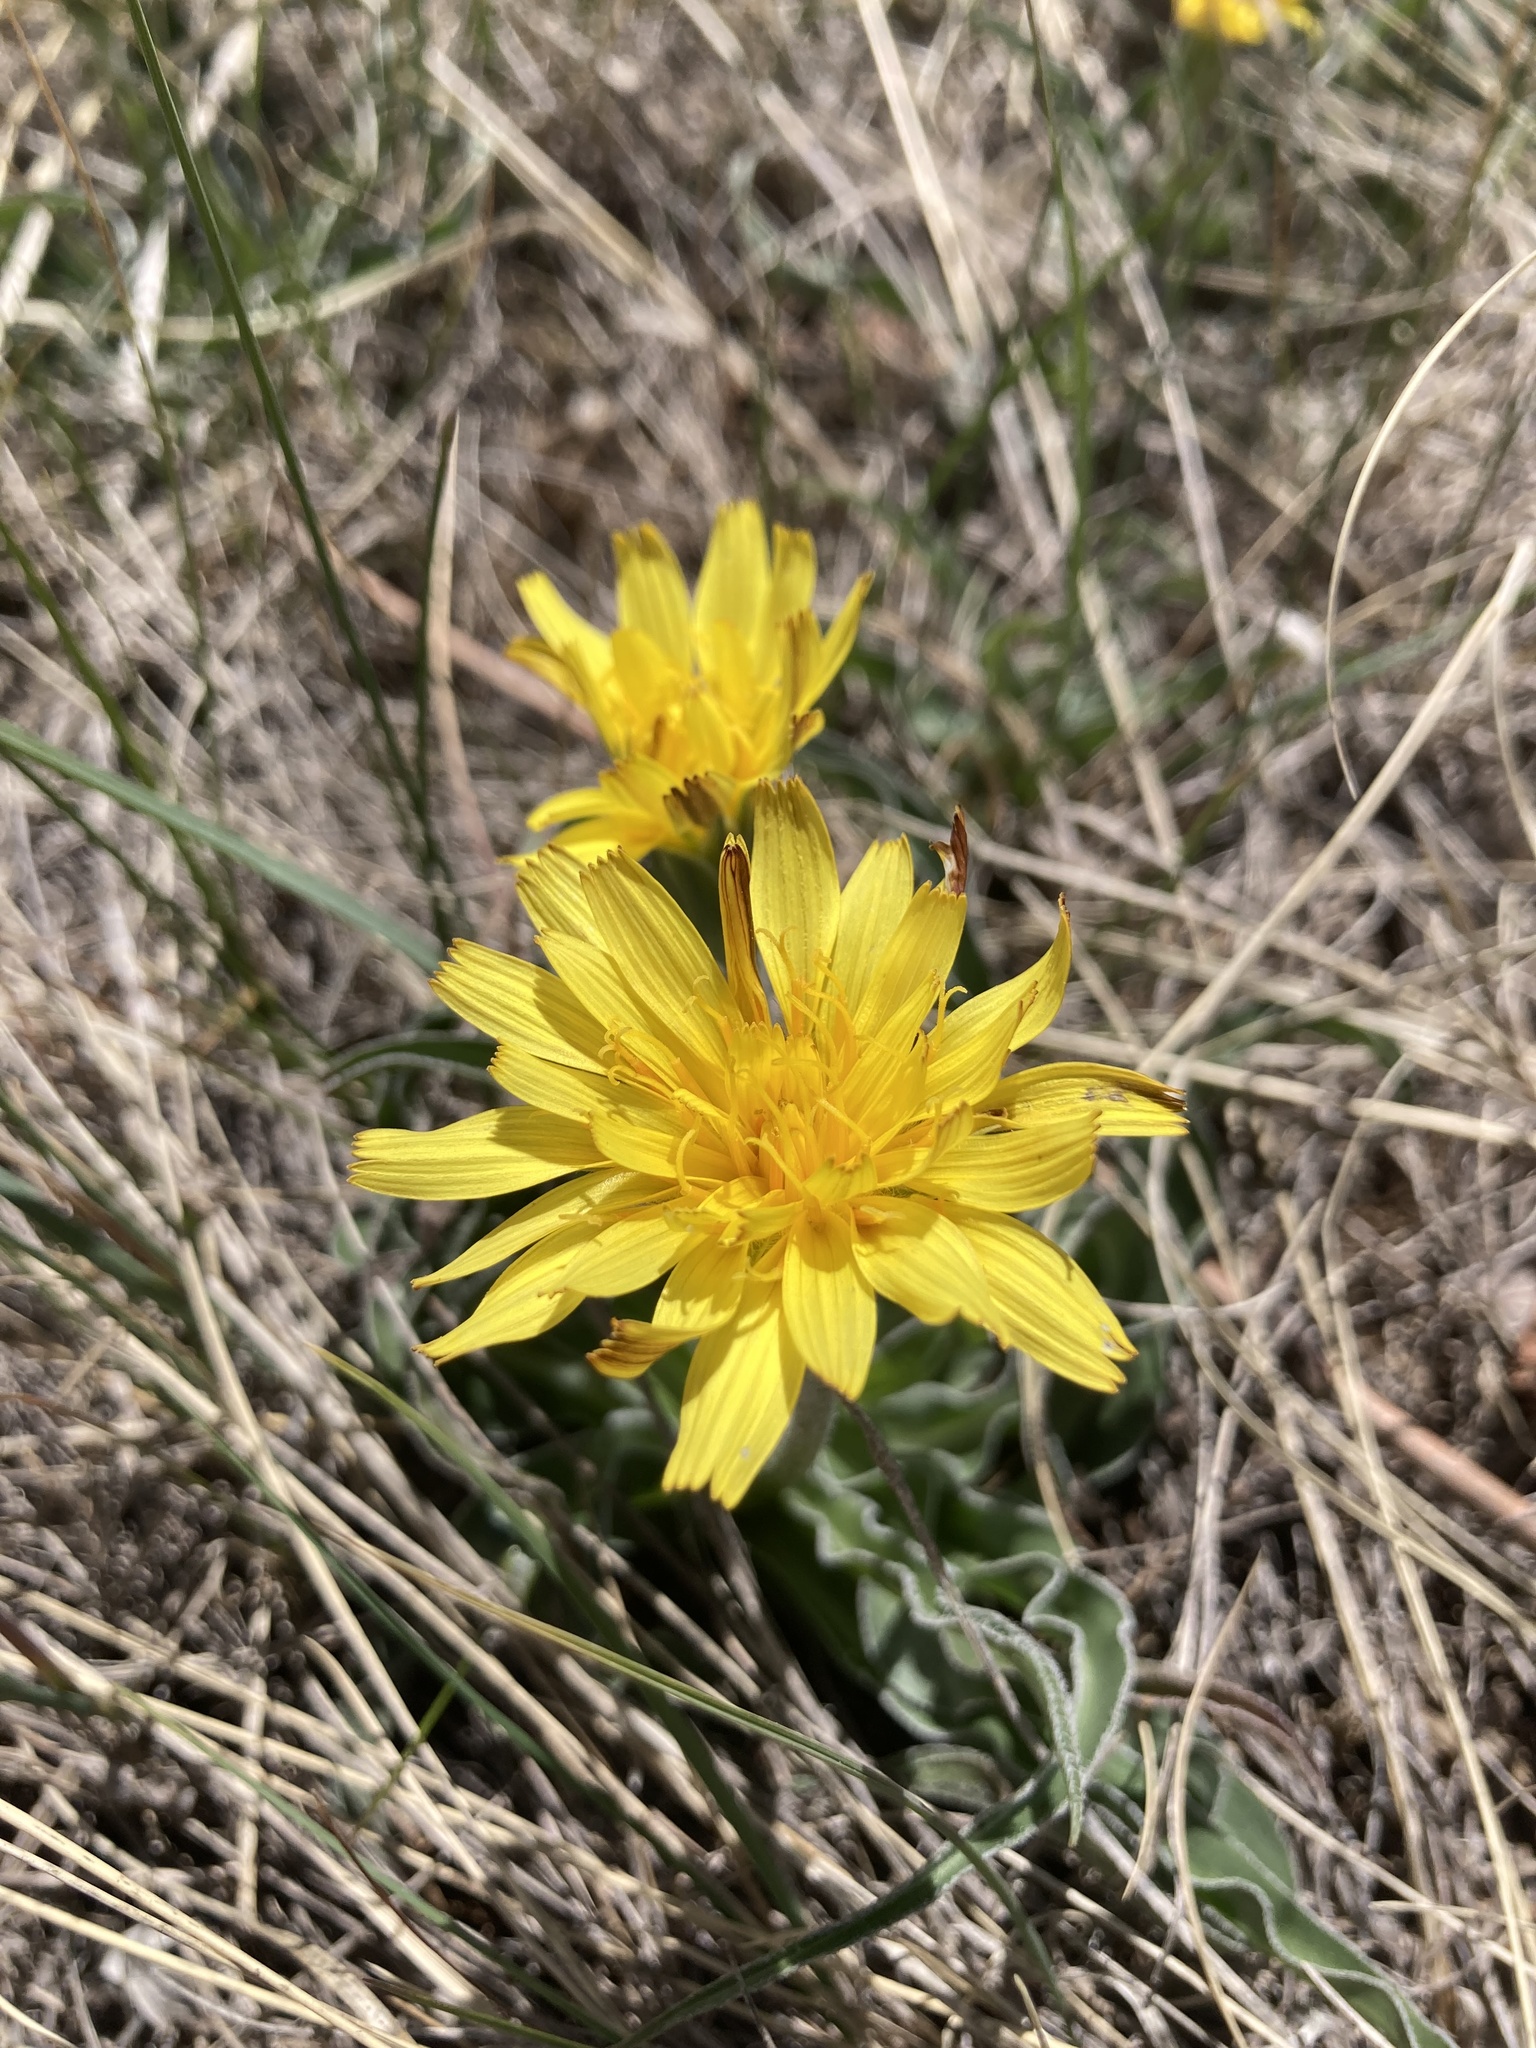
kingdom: Plantae
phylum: Tracheophyta
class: Magnoliopsida
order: Asterales
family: Asteraceae
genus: Microseris
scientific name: Microseris cuspidata
